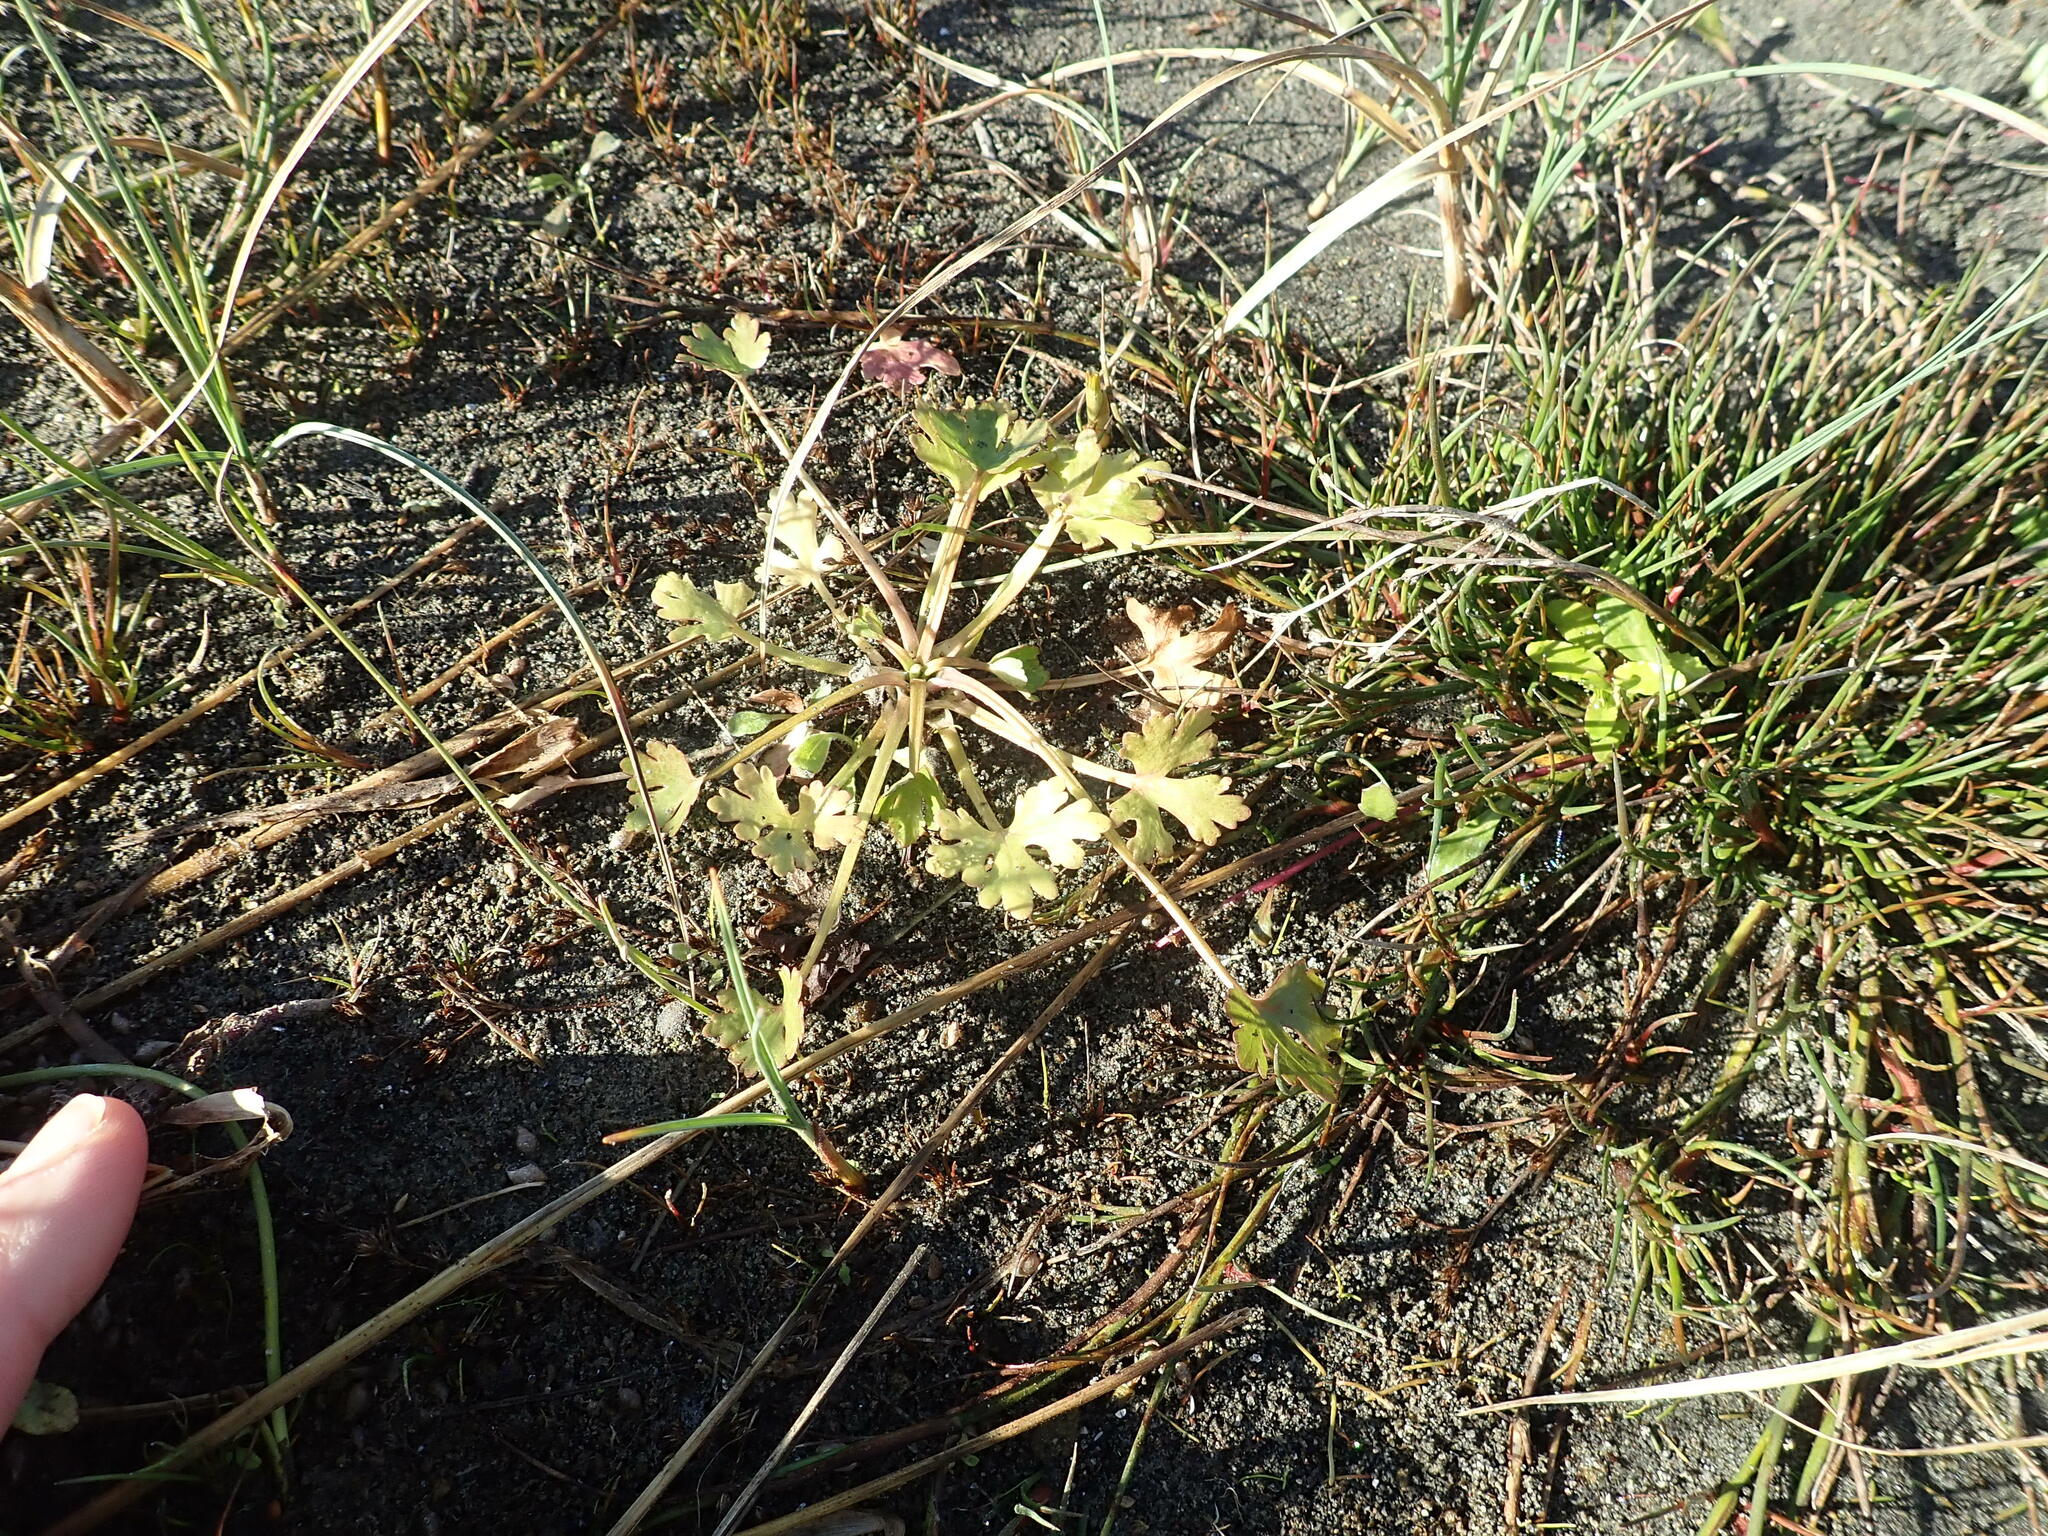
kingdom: Plantae
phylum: Tracheophyta
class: Magnoliopsida
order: Ranunculales
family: Ranunculaceae
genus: Ranunculus
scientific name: Ranunculus sceleratus
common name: Celery-leaved buttercup
